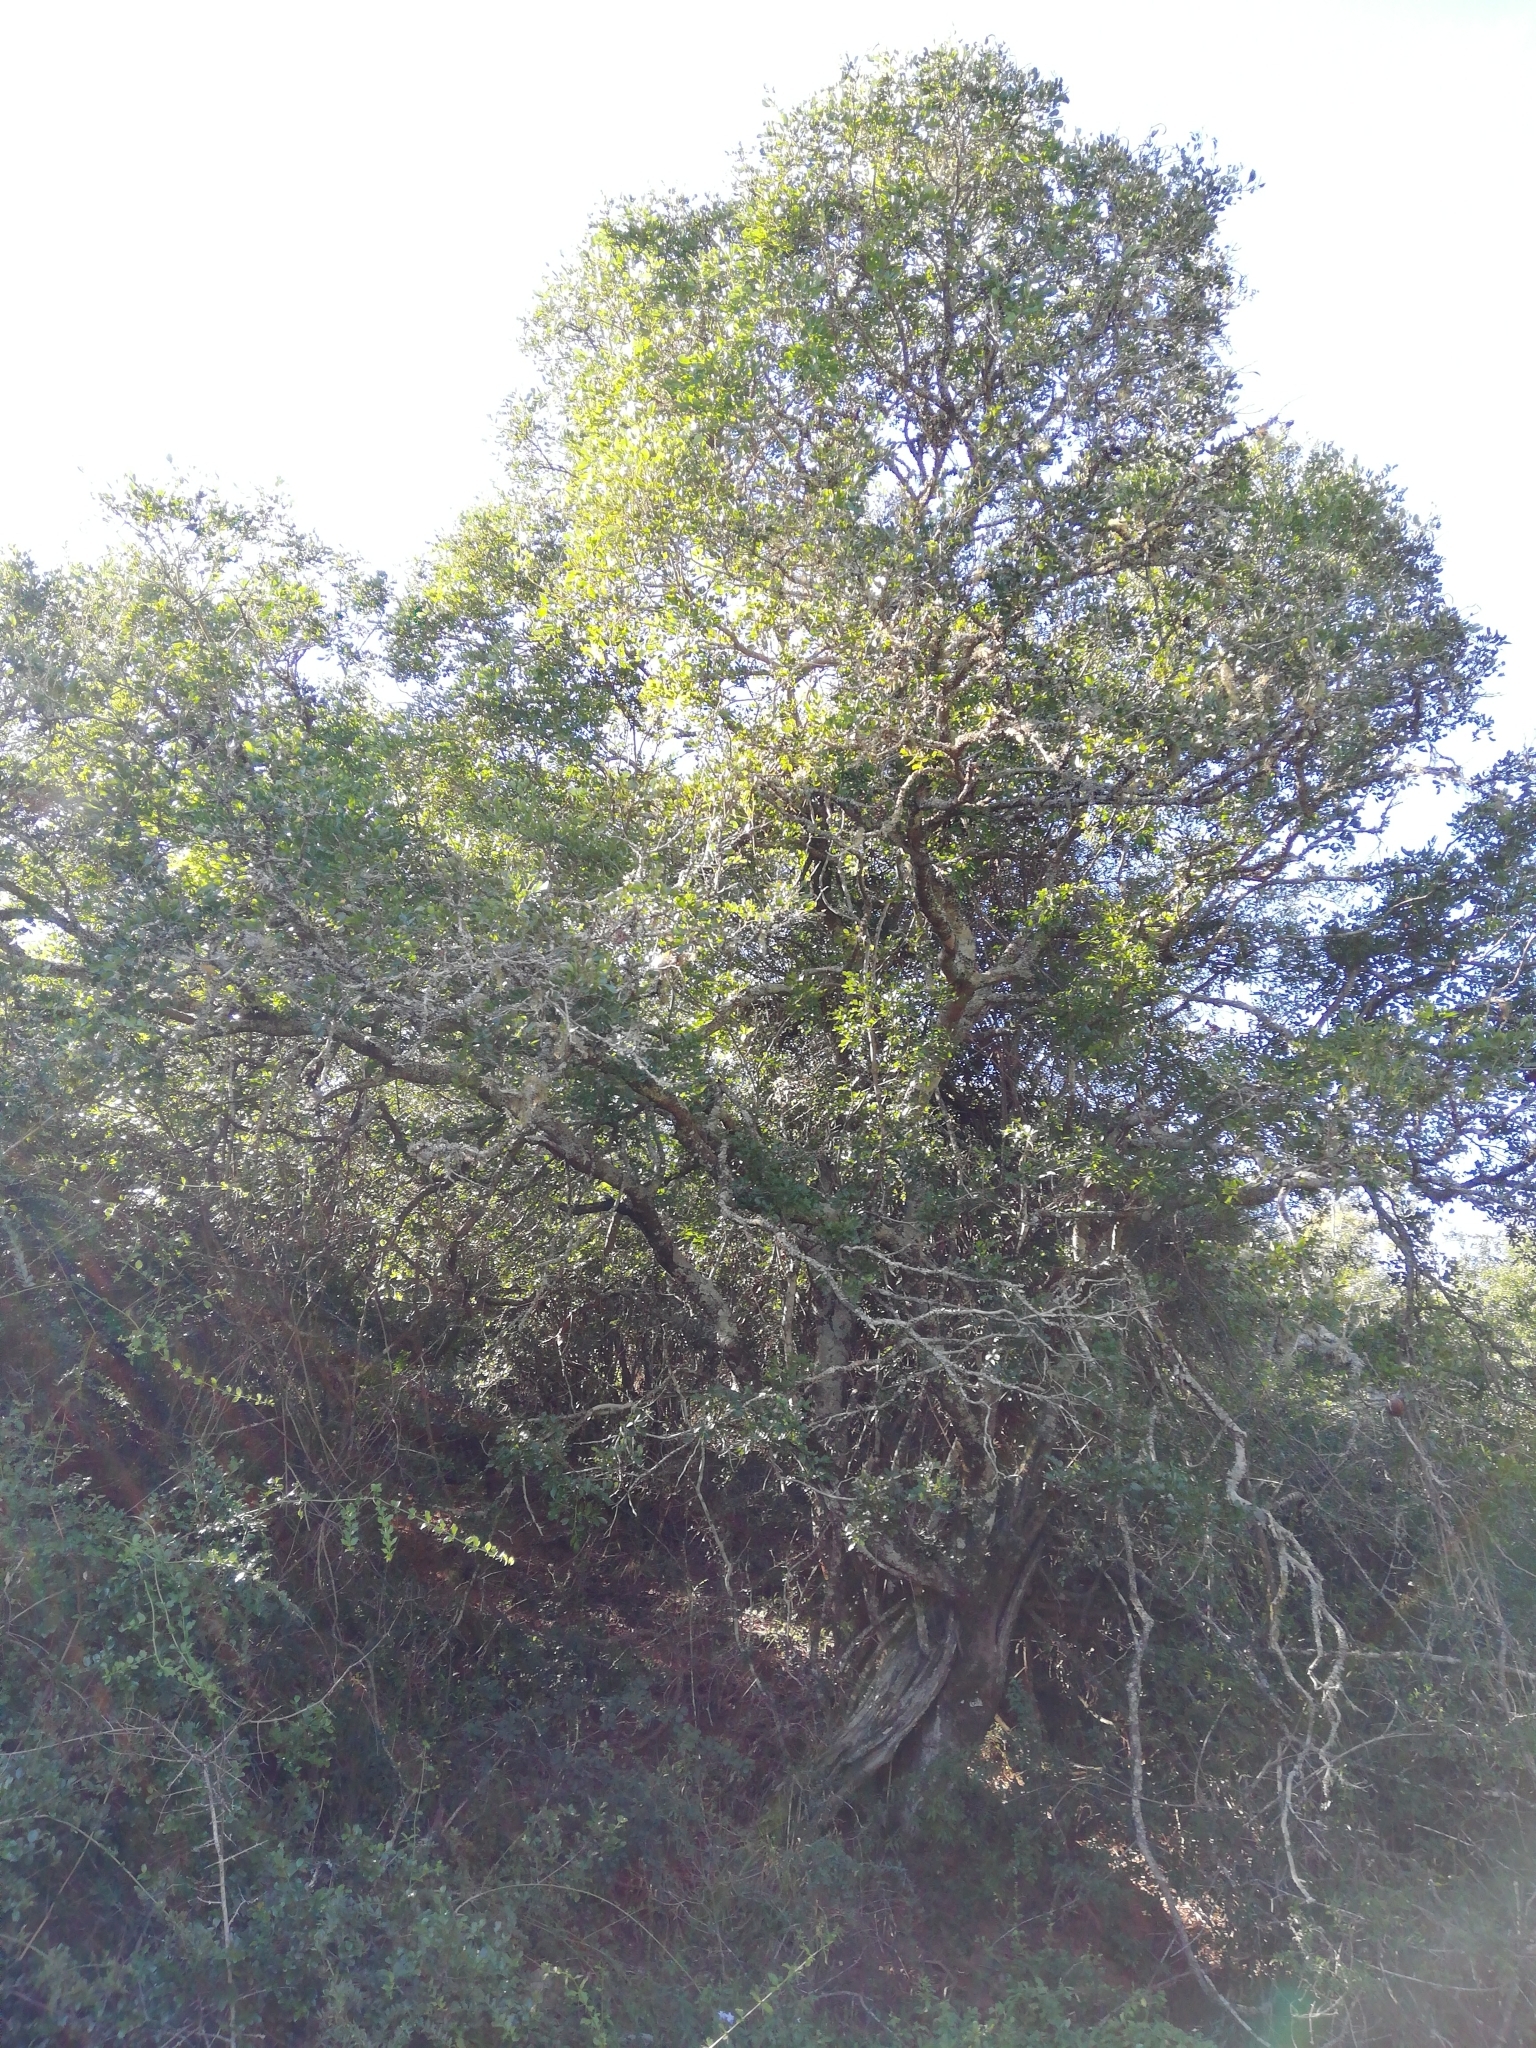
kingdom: Plantae
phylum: Tracheophyta
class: Magnoliopsida
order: Fabales
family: Fabaceae
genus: Schotia
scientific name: Schotia latifolia
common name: Bush boer-bean
